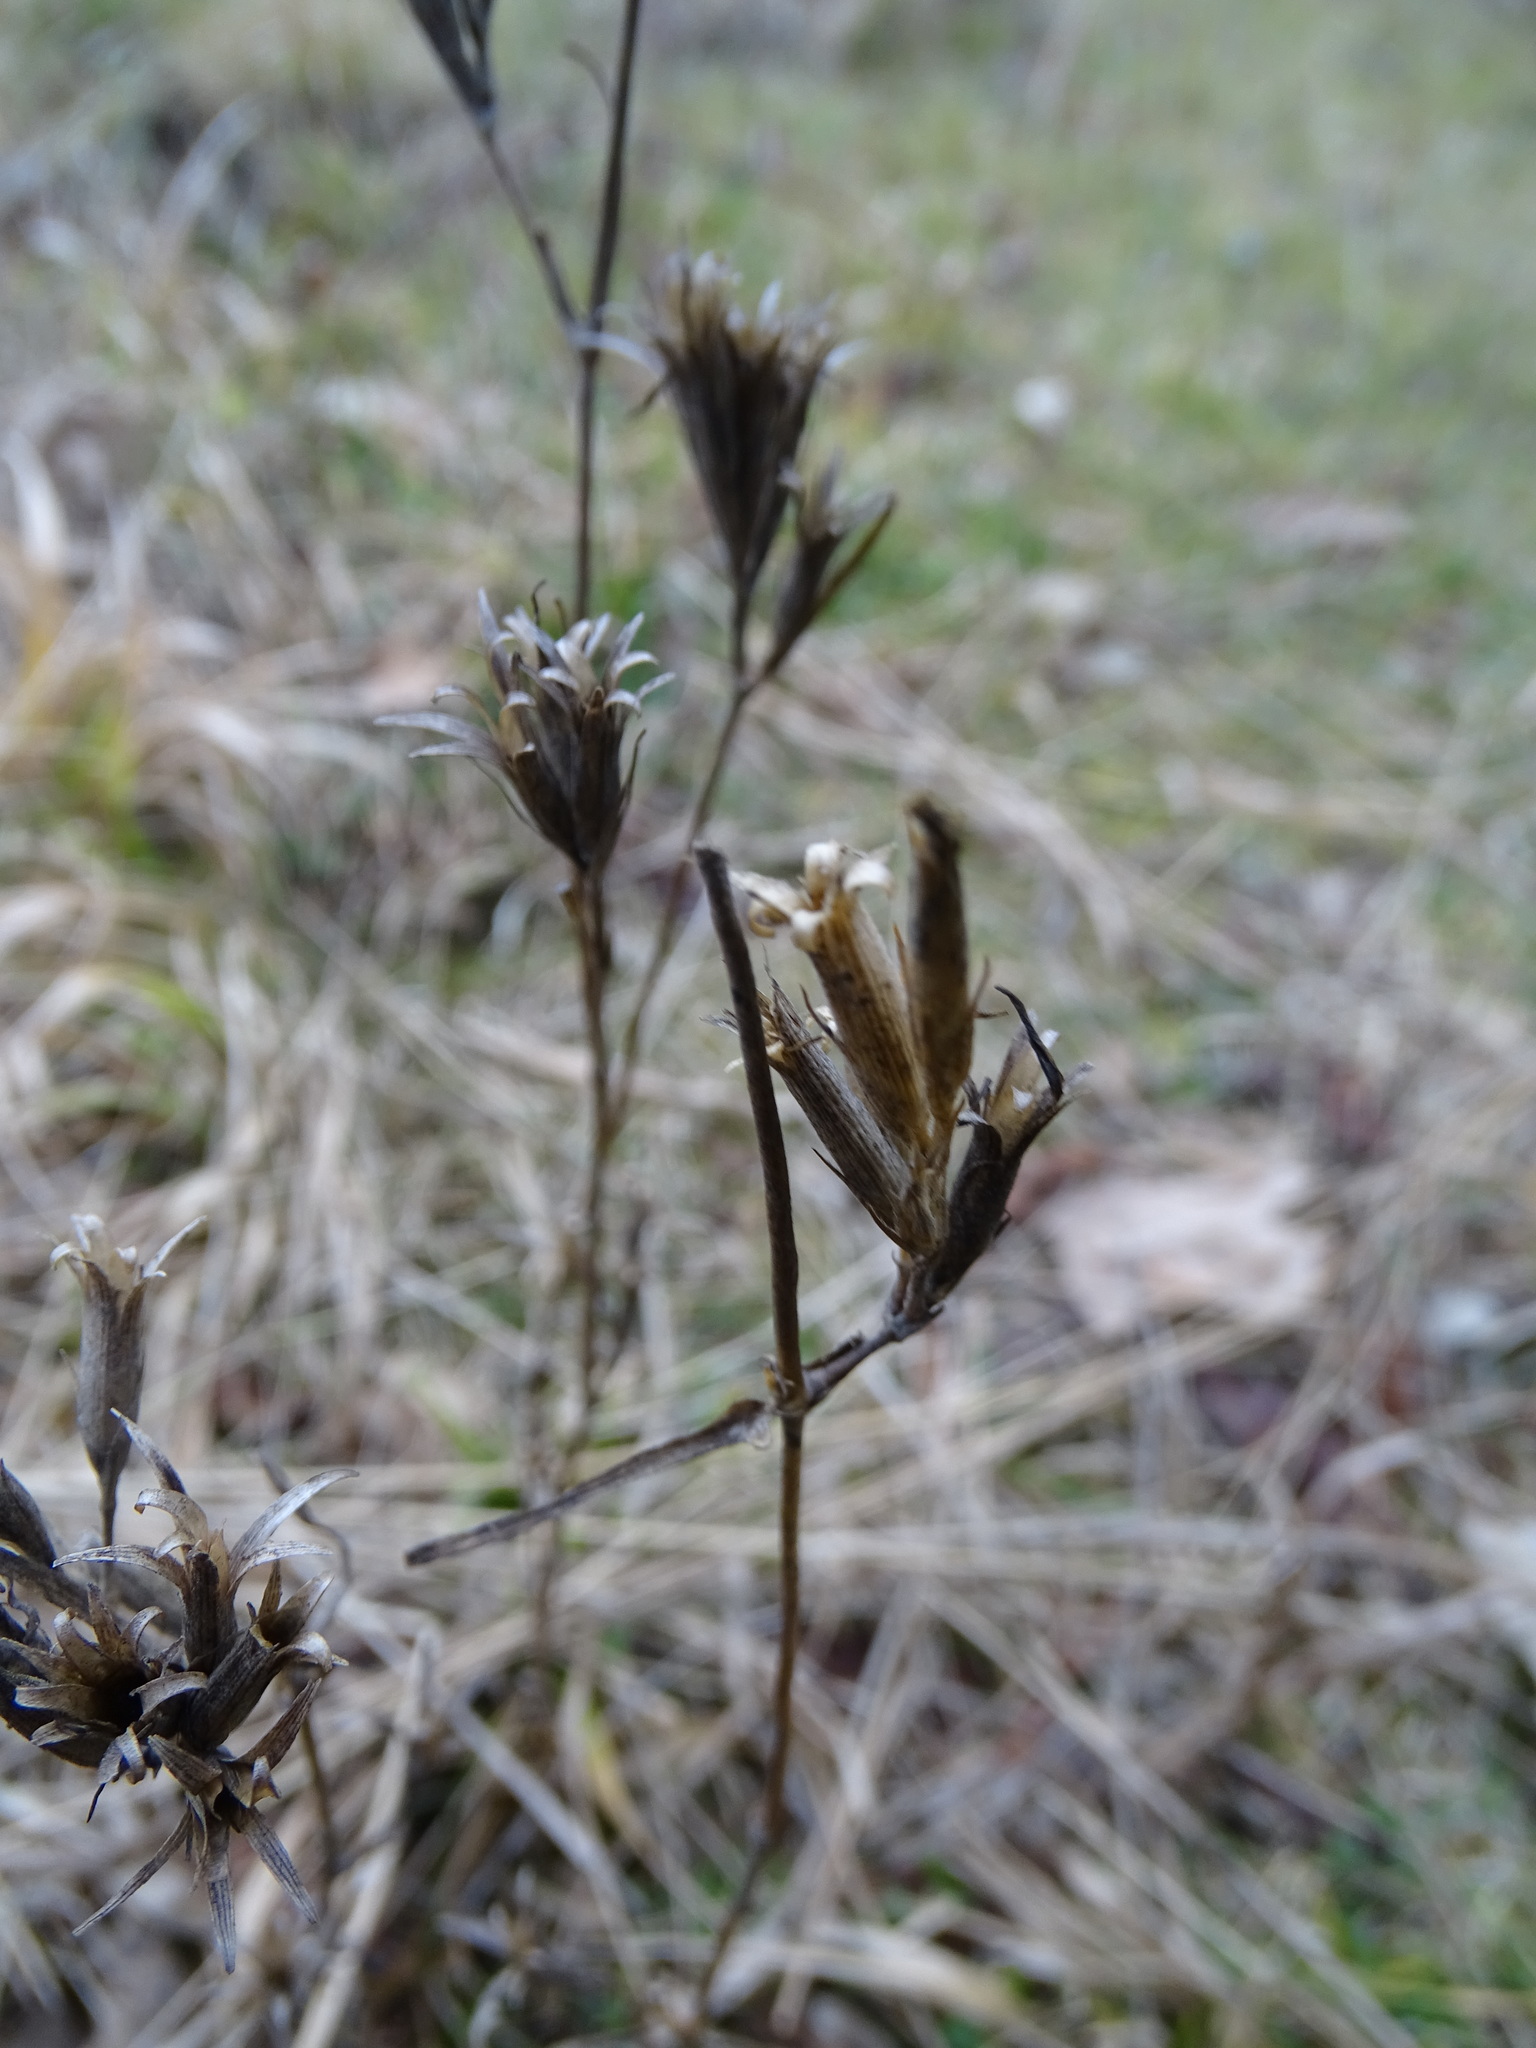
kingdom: Plantae
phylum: Tracheophyta
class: Magnoliopsida
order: Caryophyllales
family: Caryophyllaceae
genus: Dianthus
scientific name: Dianthus armeria
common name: Deptford pink
